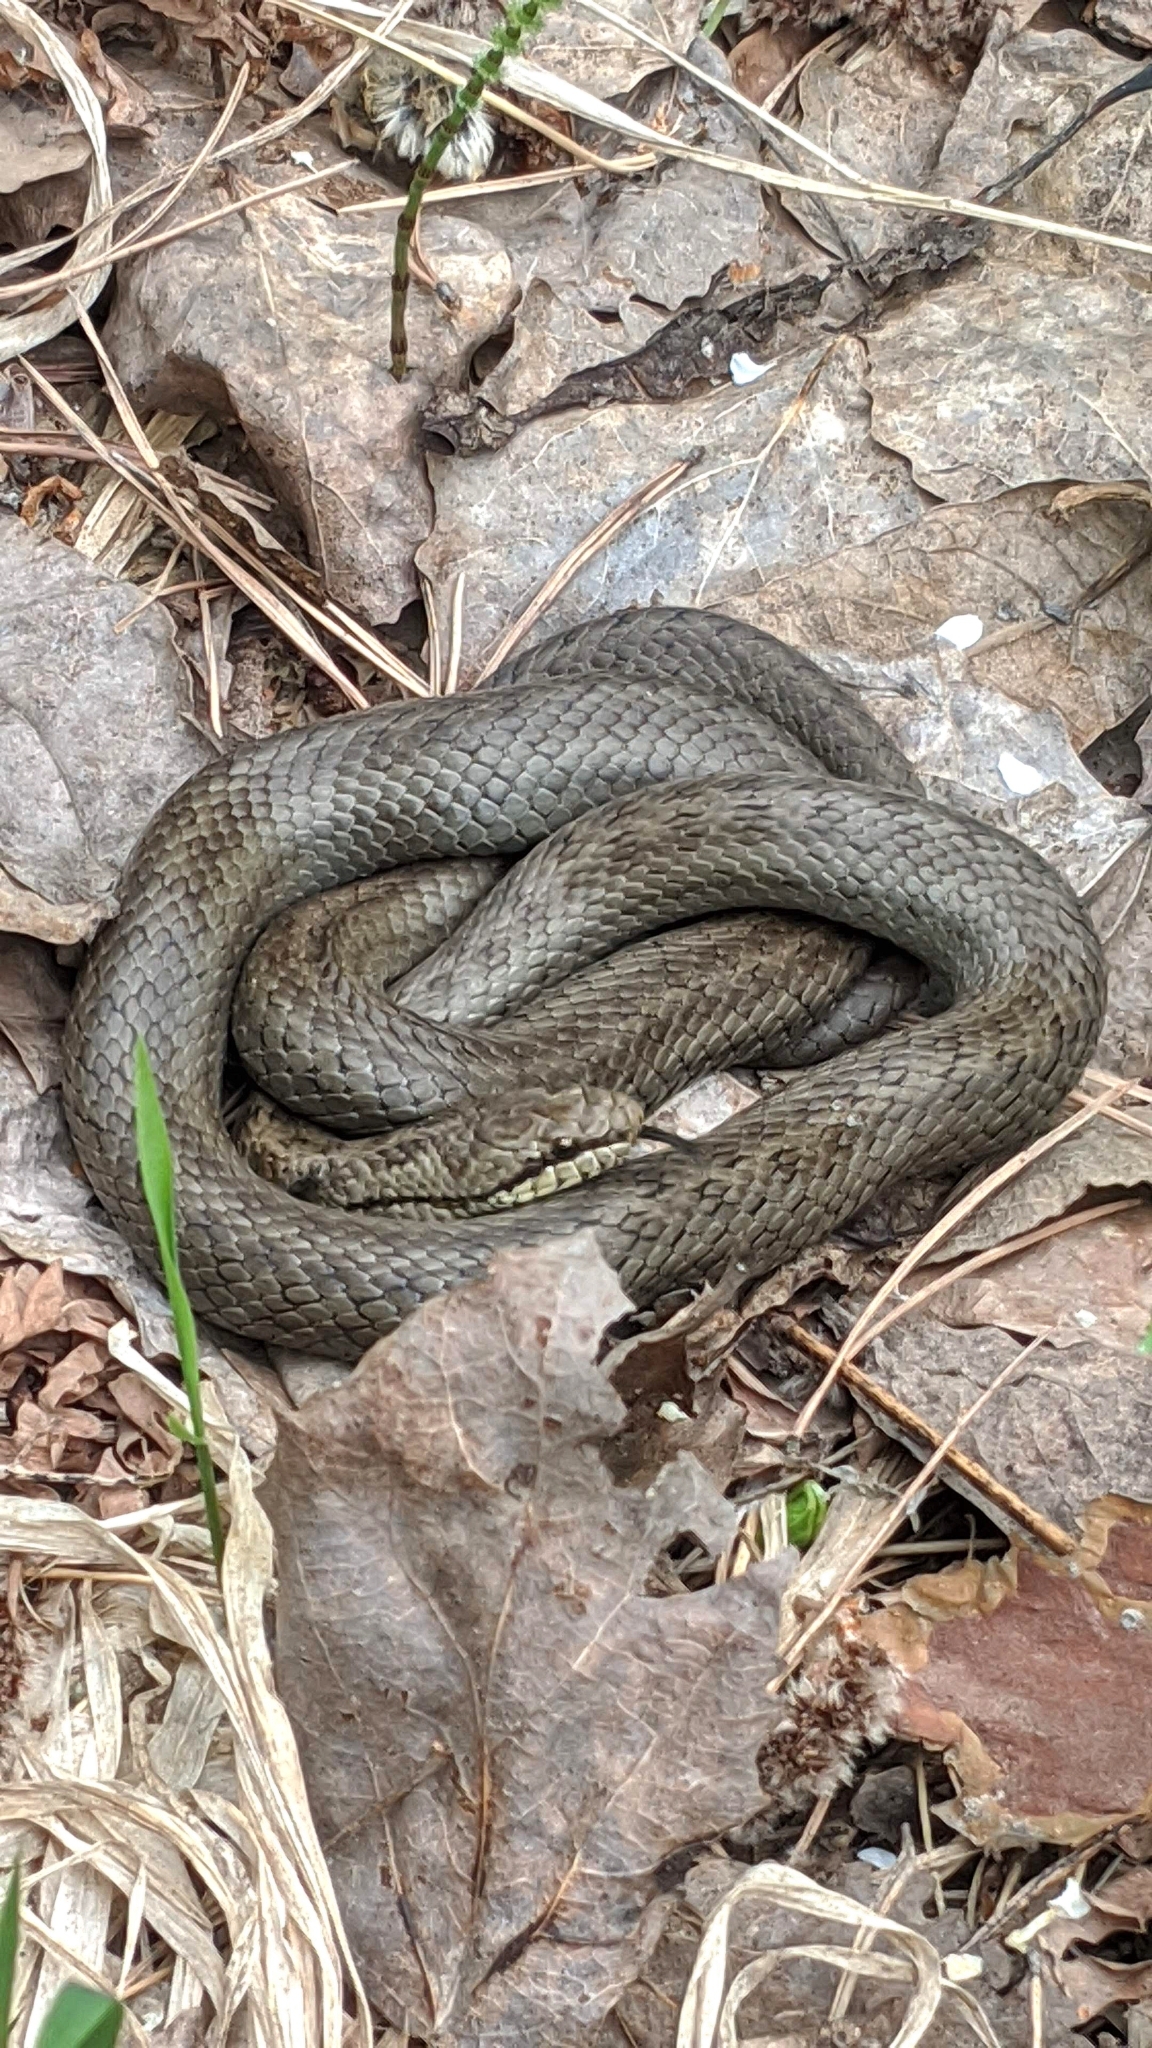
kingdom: Animalia
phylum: Chordata
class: Squamata
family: Colubridae
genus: Coronella
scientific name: Coronella austriaca
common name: Smooth snake
